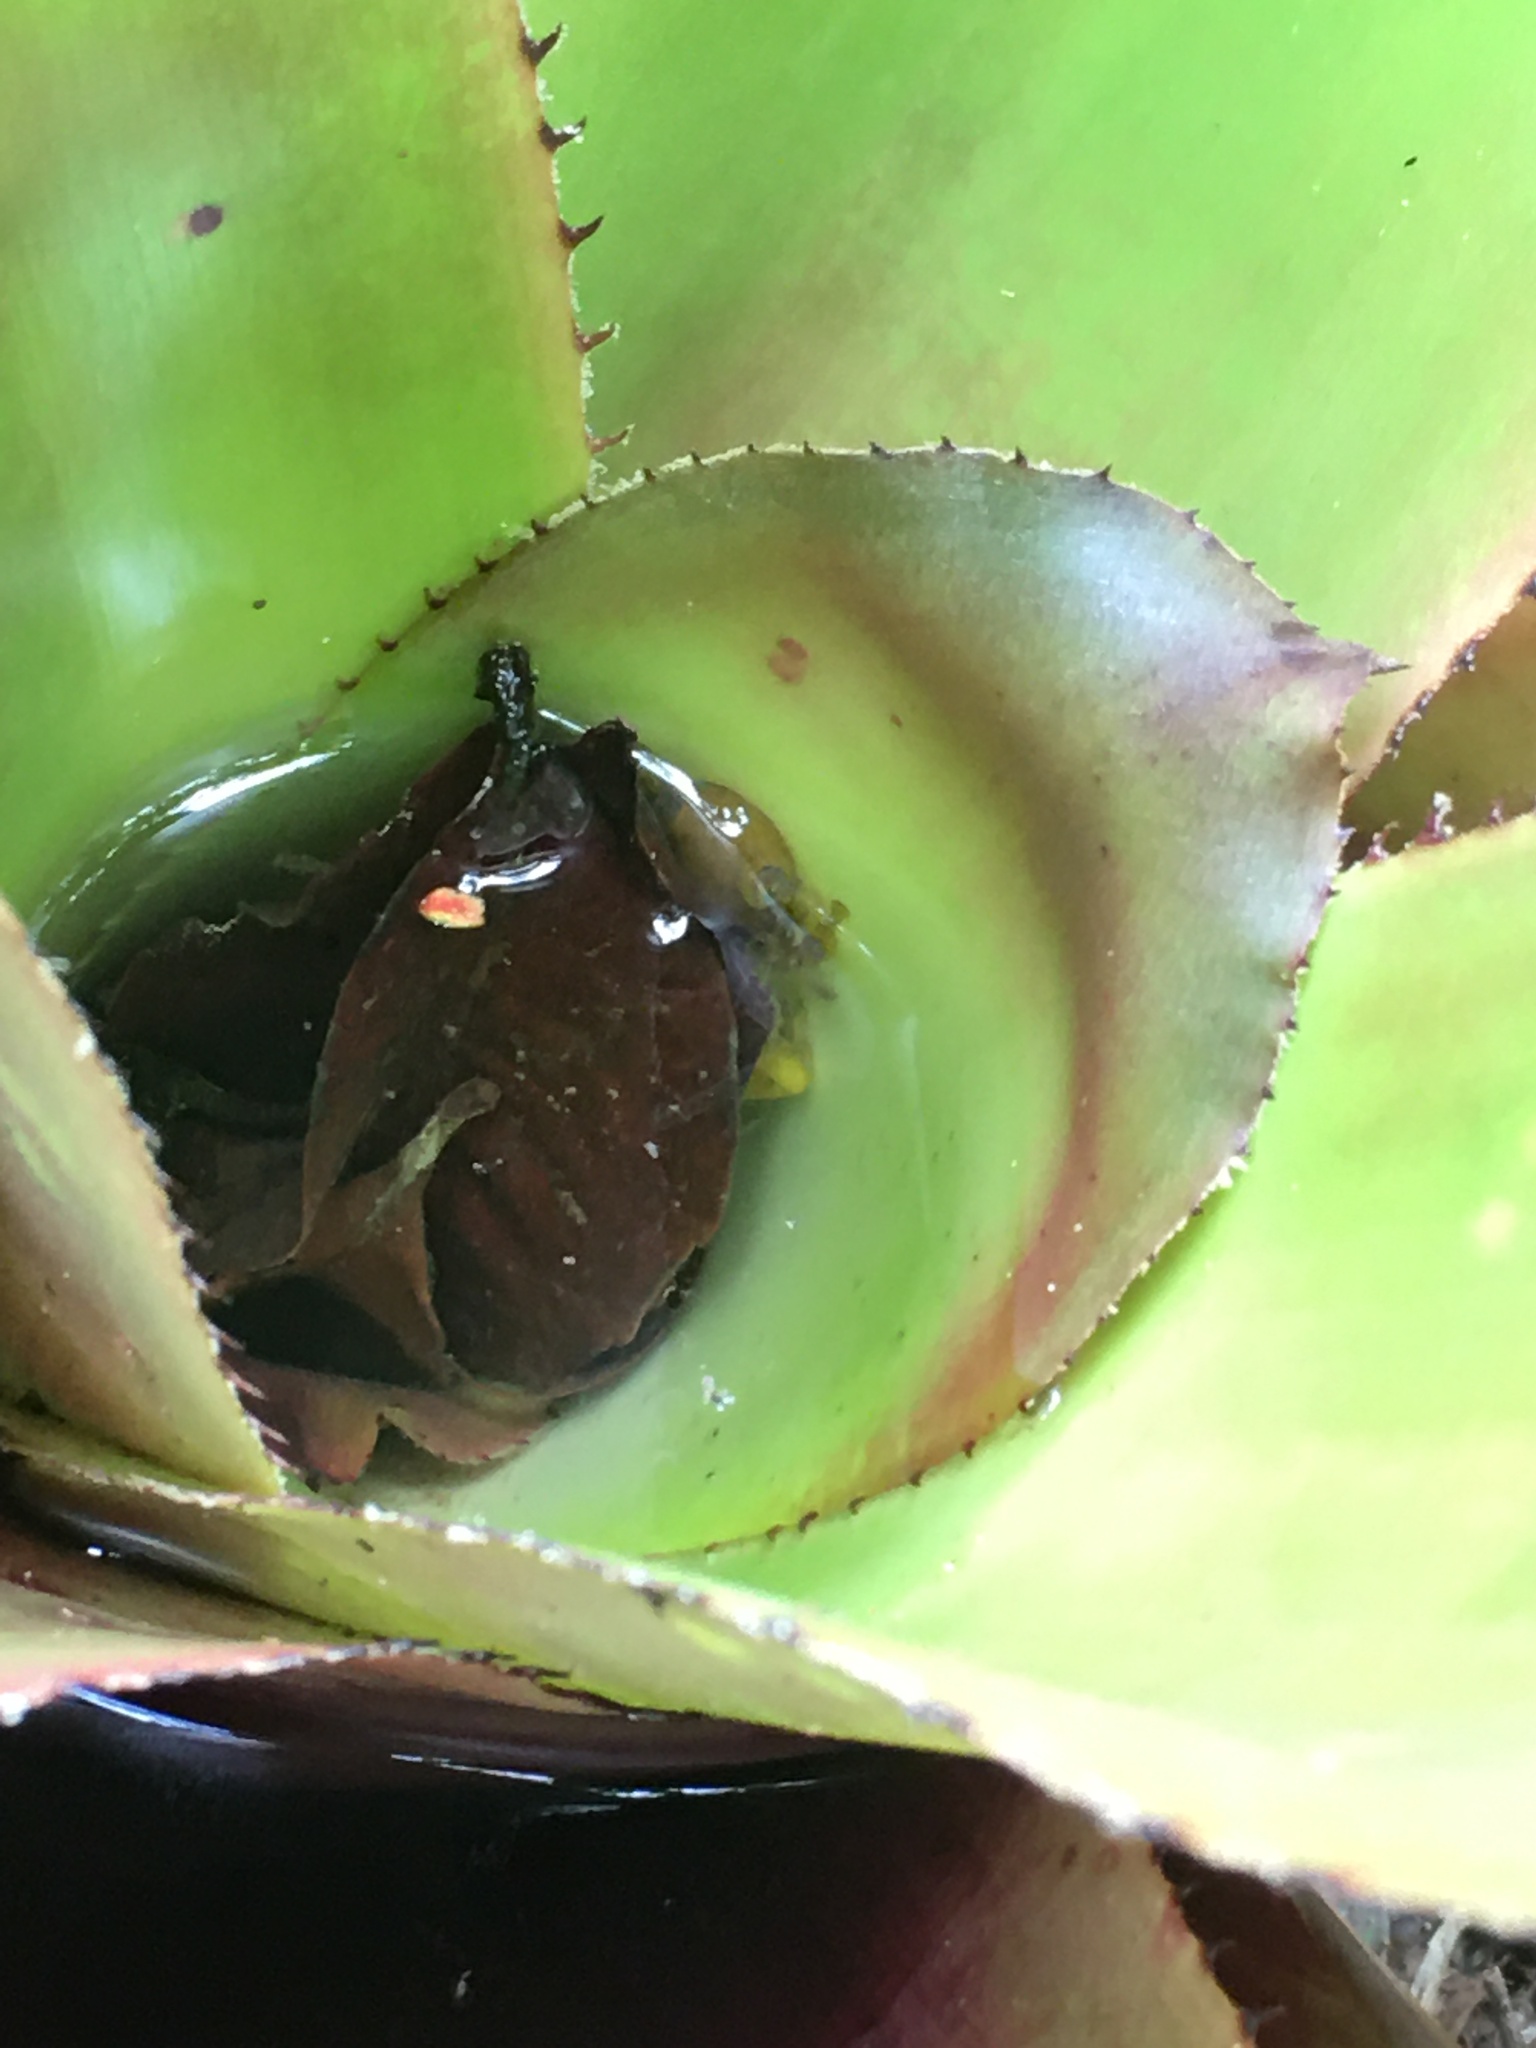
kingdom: Animalia
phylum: Chordata
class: Amphibia
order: Anura
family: Hylidae
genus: Phyllodytes
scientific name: Phyllodytes edelmoi
